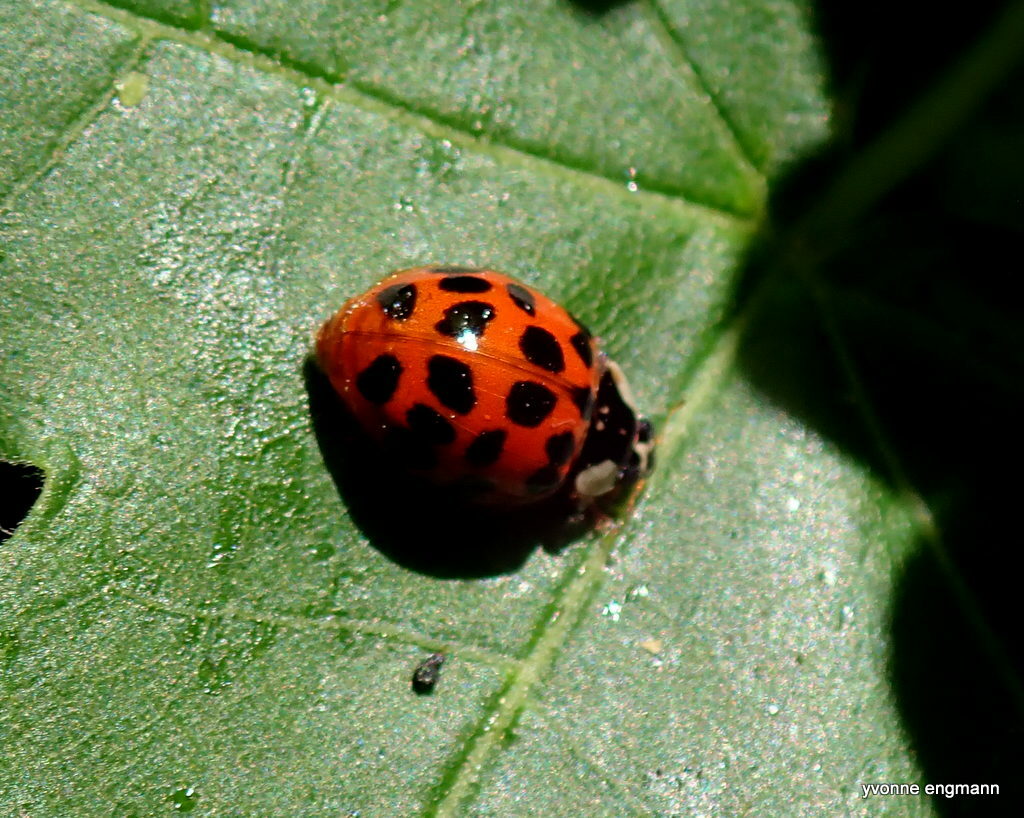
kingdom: Animalia
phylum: Arthropoda
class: Insecta
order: Coleoptera
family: Coccinellidae
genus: Harmonia
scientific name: Harmonia axyridis
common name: Harlequin ladybird
